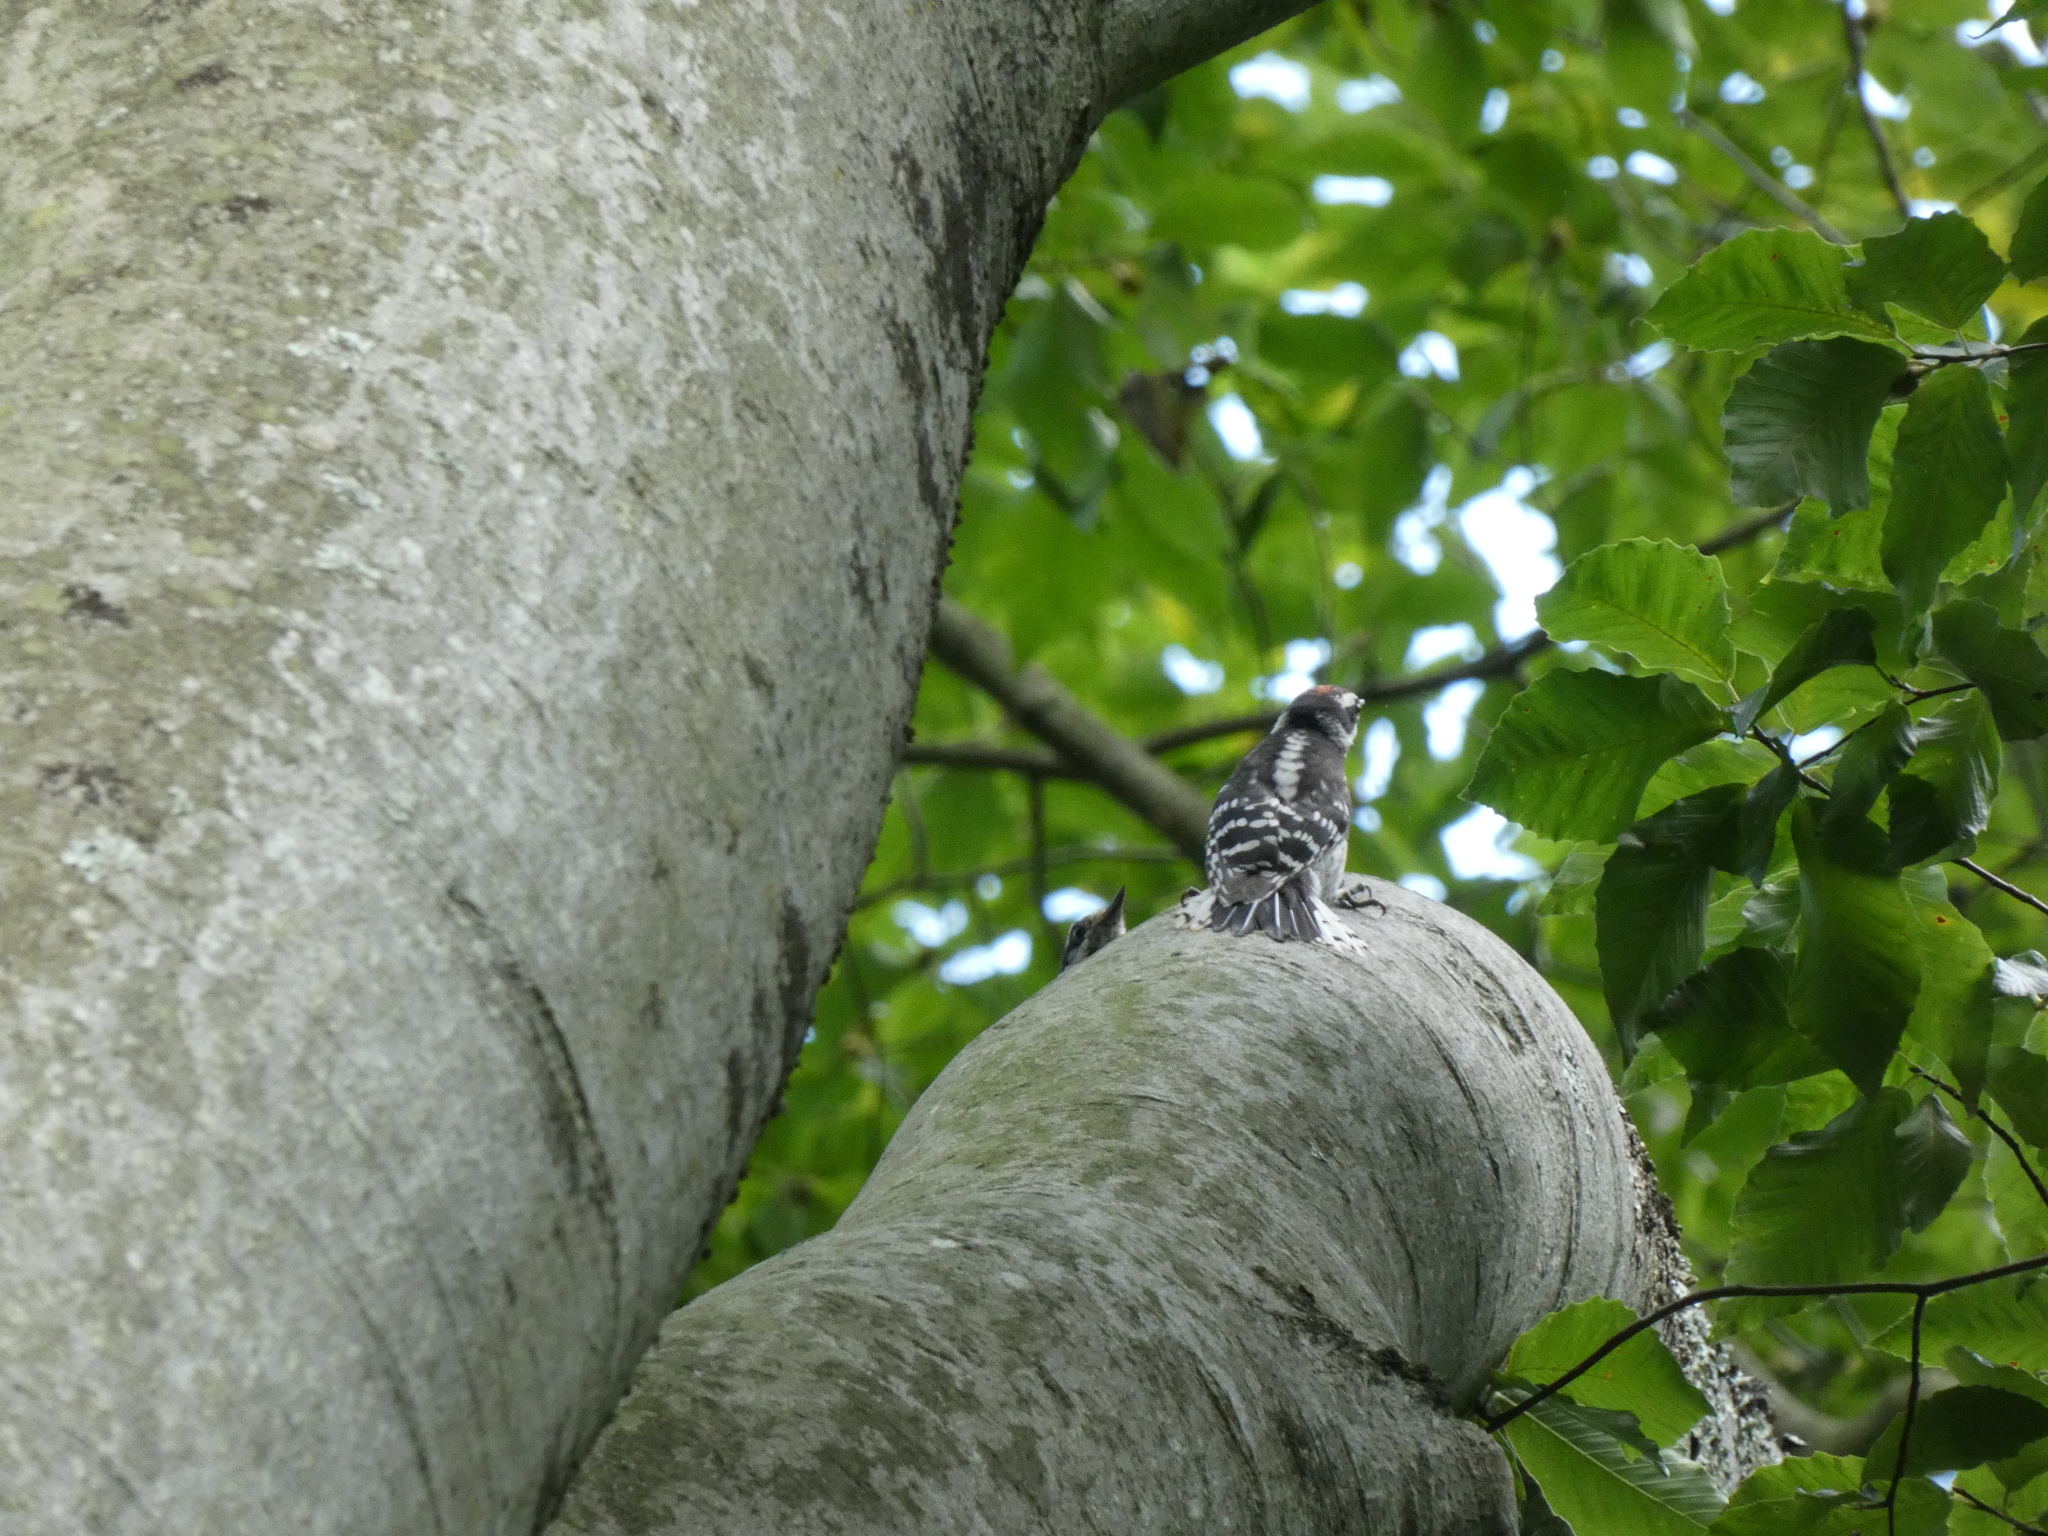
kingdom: Animalia
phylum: Chordata
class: Aves
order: Piciformes
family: Picidae
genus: Dryobates
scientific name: Dryobates pubescens
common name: Downy woodpecker
